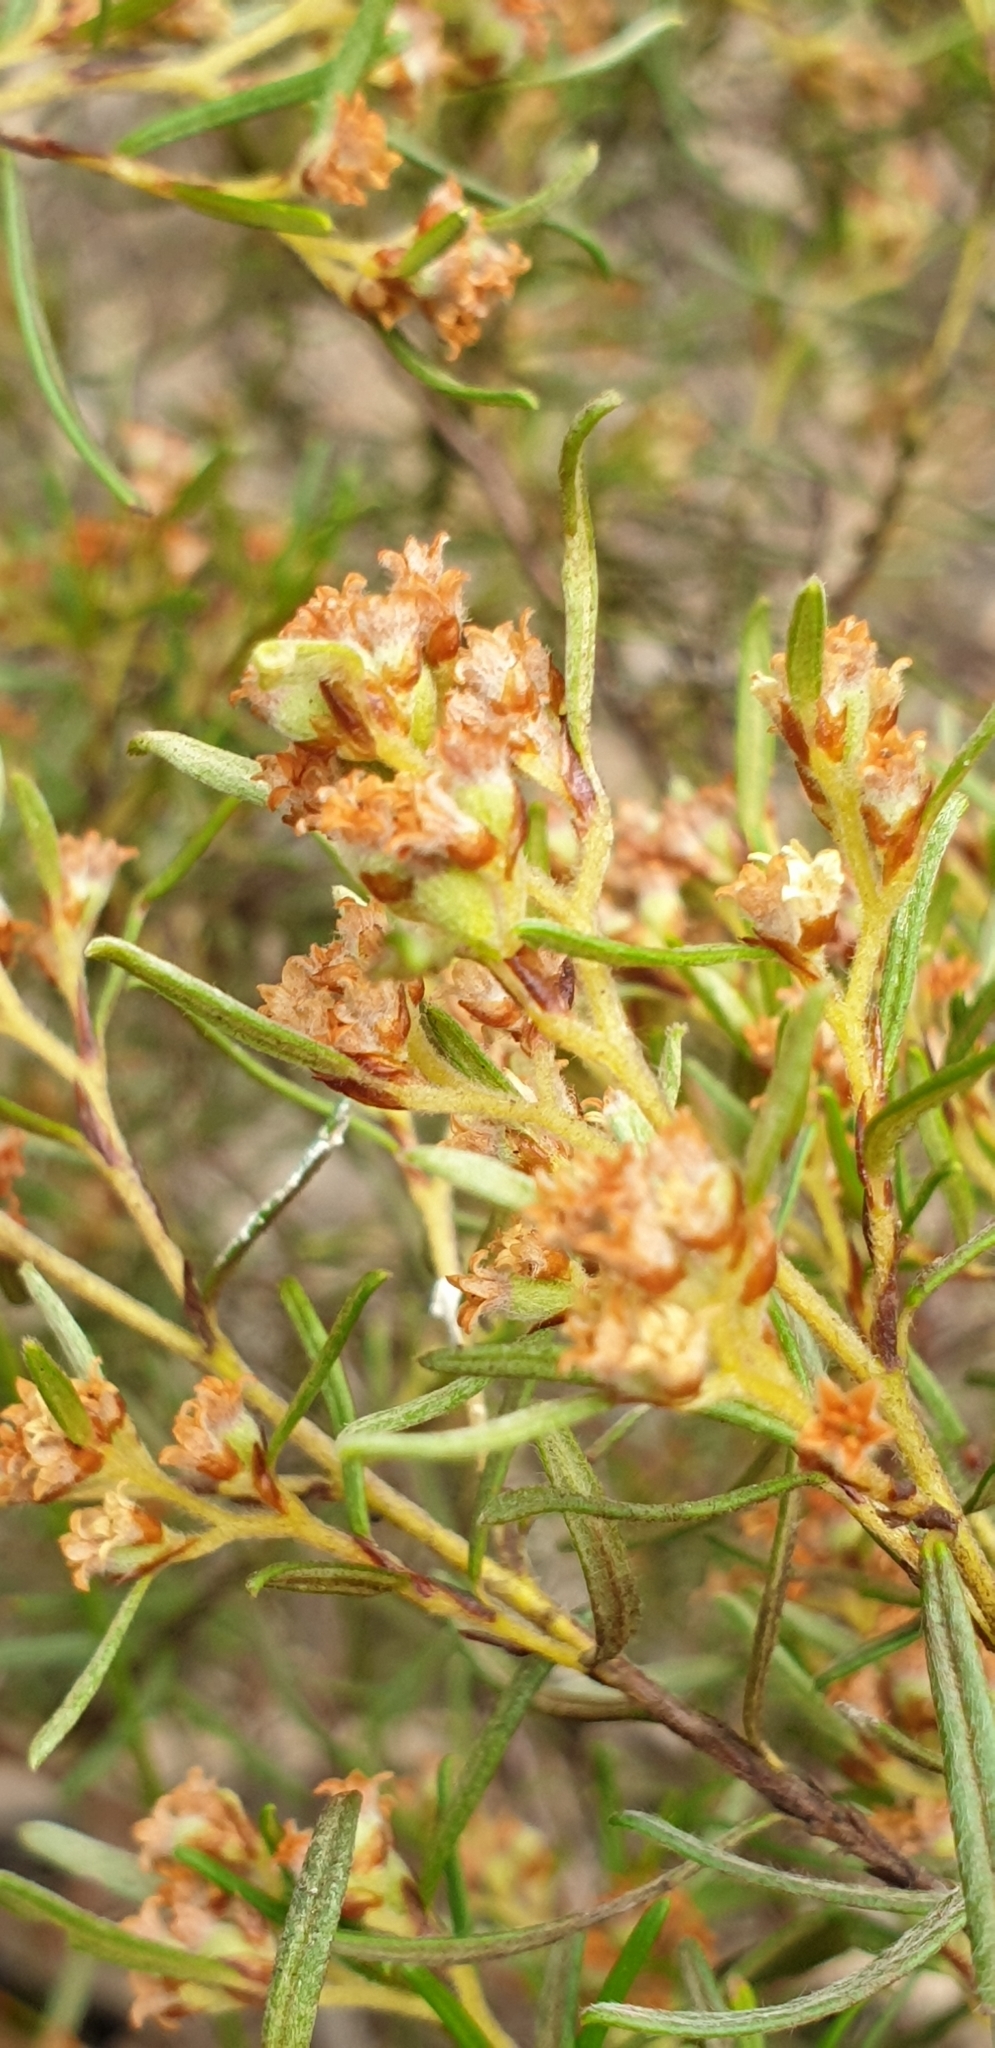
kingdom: Plantae
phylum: Tracheophyta
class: Magnoliopsida
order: Rosales
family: Rhamnaceae
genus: Cryptandra
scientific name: Cryptandra waterhousii
